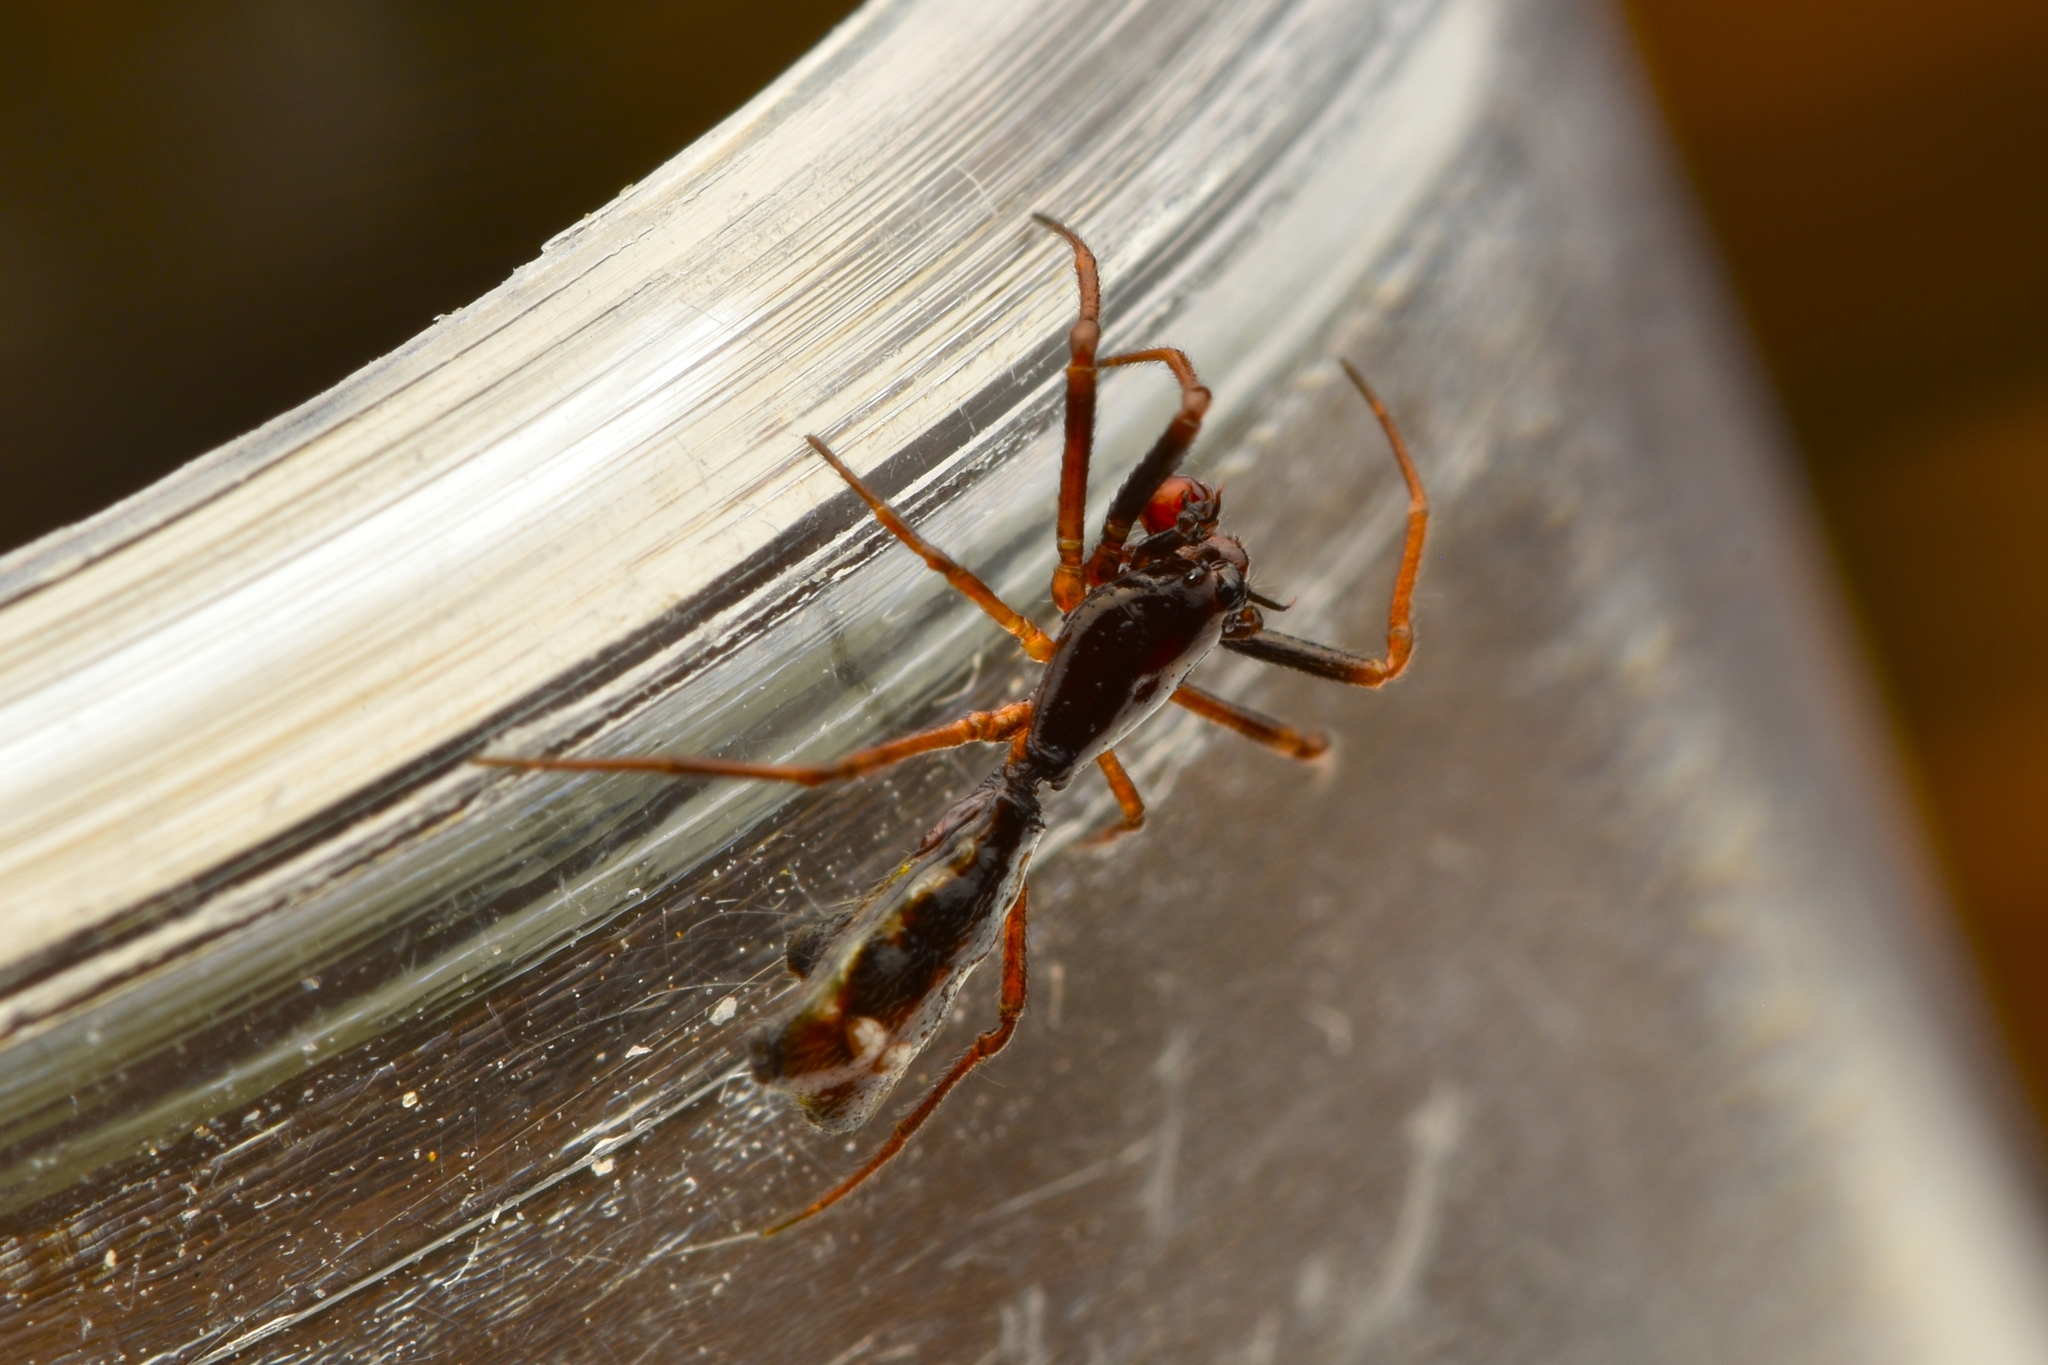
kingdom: Animalia
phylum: Arthropoda
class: Arachnida
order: Araneae
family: Araneidae
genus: Micrathena
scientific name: Micrathena sexspinosa
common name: Orb weavers
